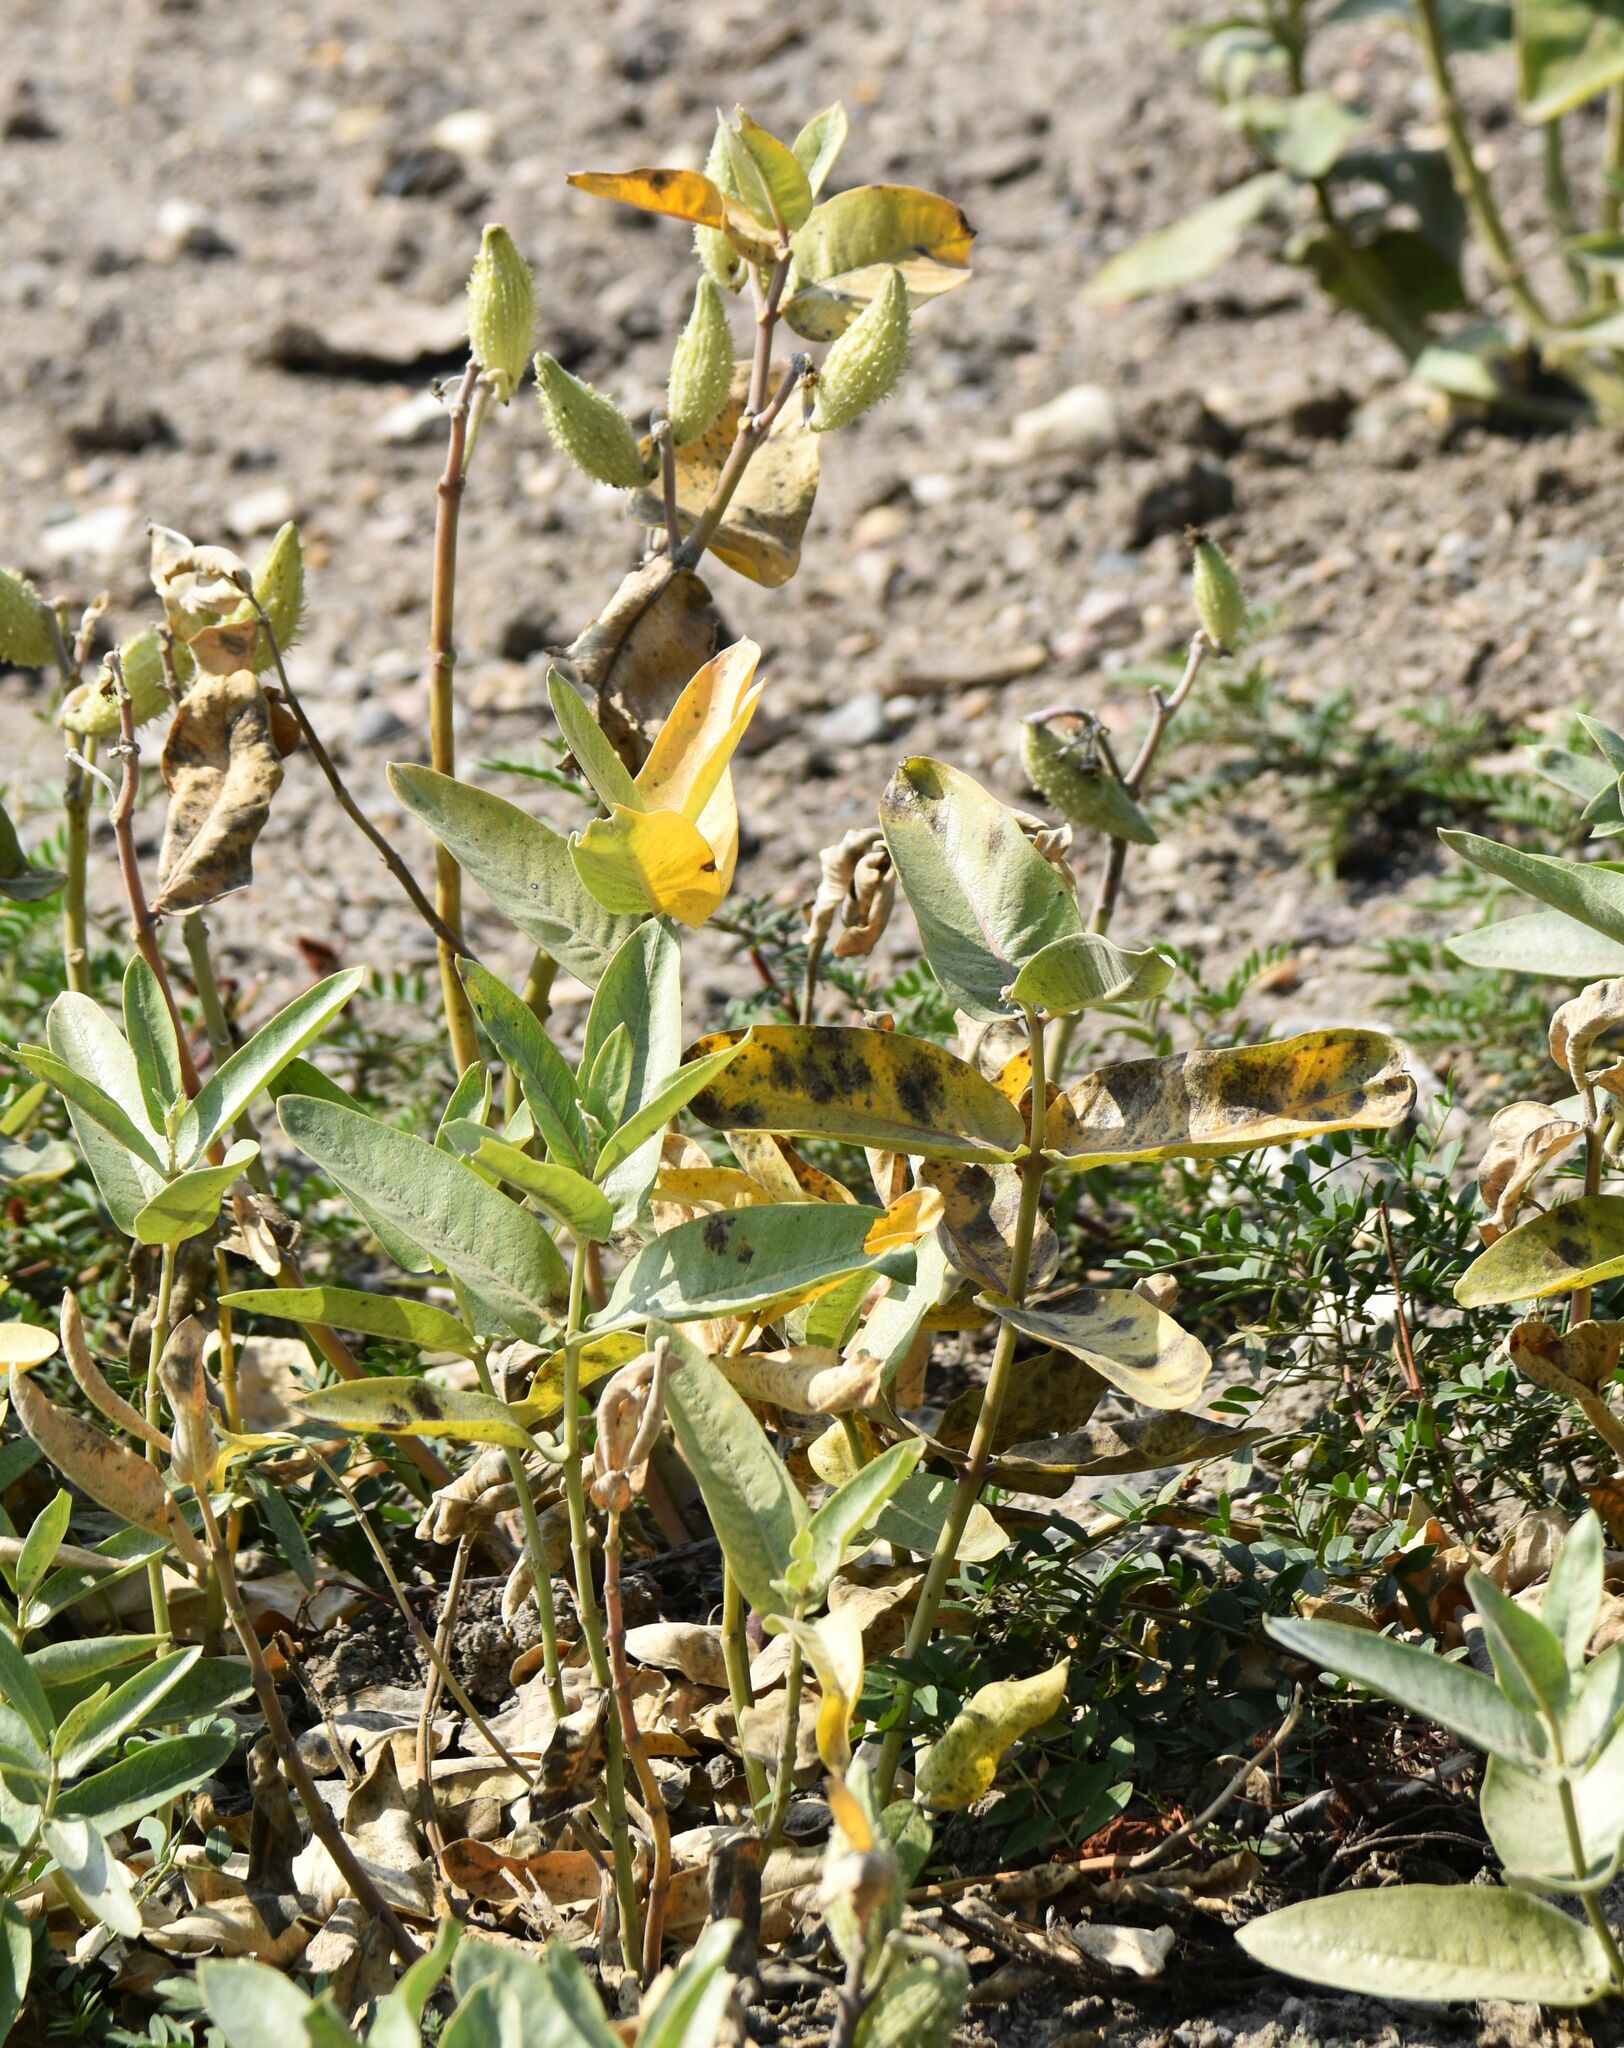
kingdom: Plantae
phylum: Tracheophyta
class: Magnoliopsida
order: Gentianales
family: Apocynaceae
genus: Asclepias
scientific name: Asclepias speciosa
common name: Showy milkweed
